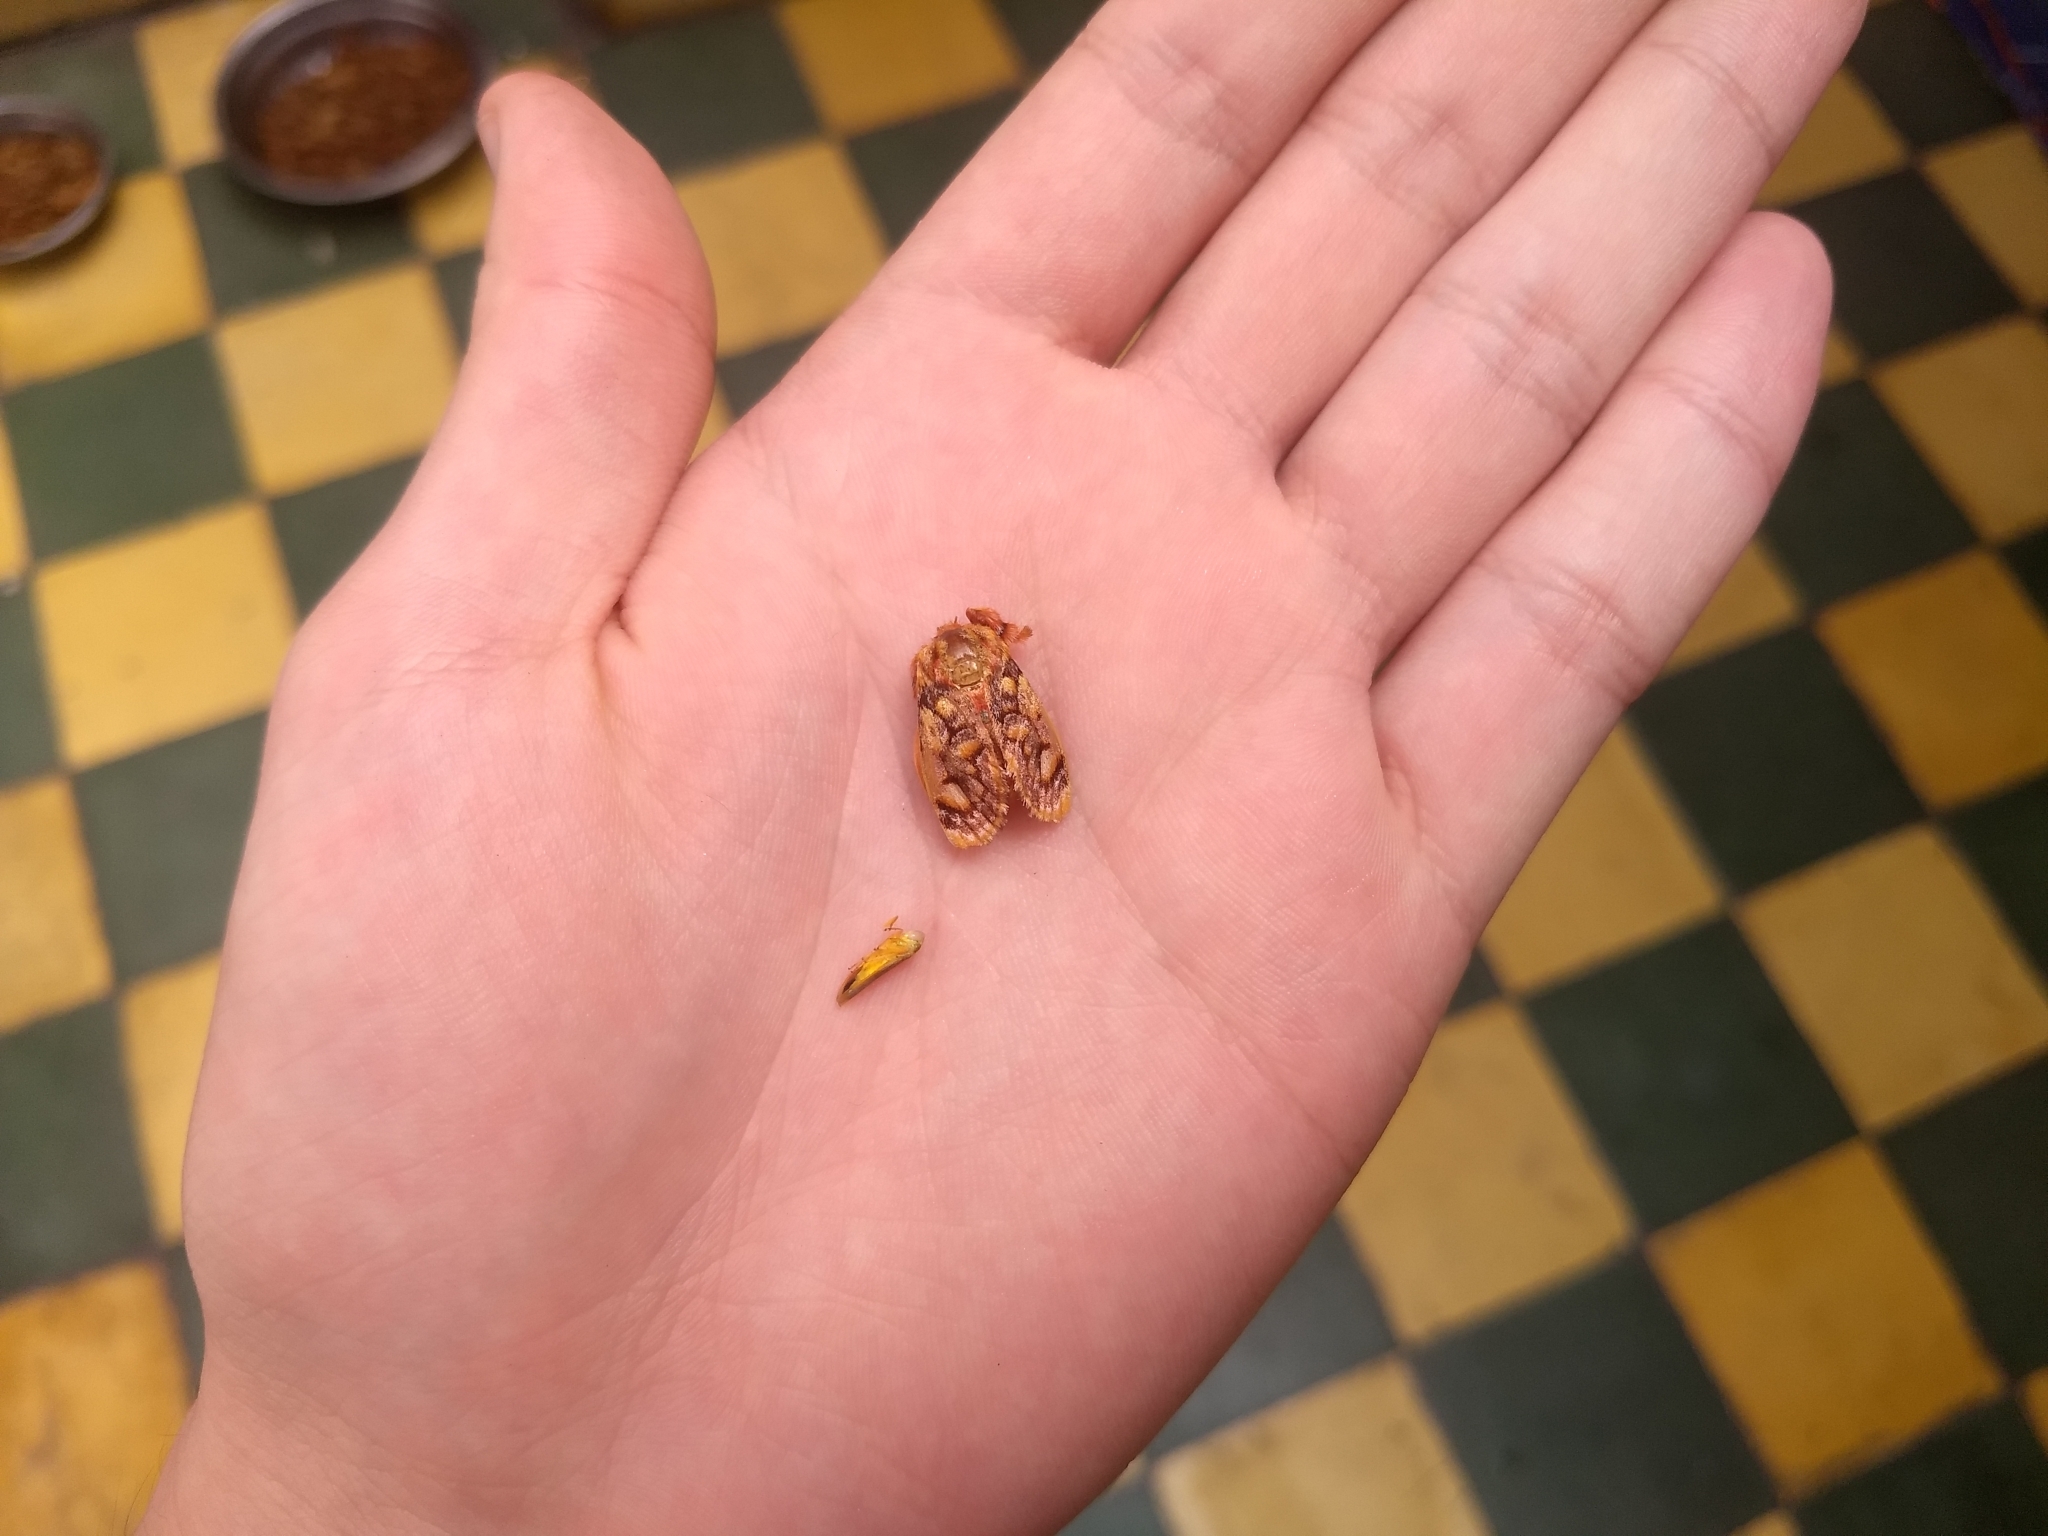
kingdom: Animalia
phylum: Arthropoda
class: Insecta
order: Lepidoptera
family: Limacodidae
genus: Phobetron
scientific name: Phobetron hipparchia
